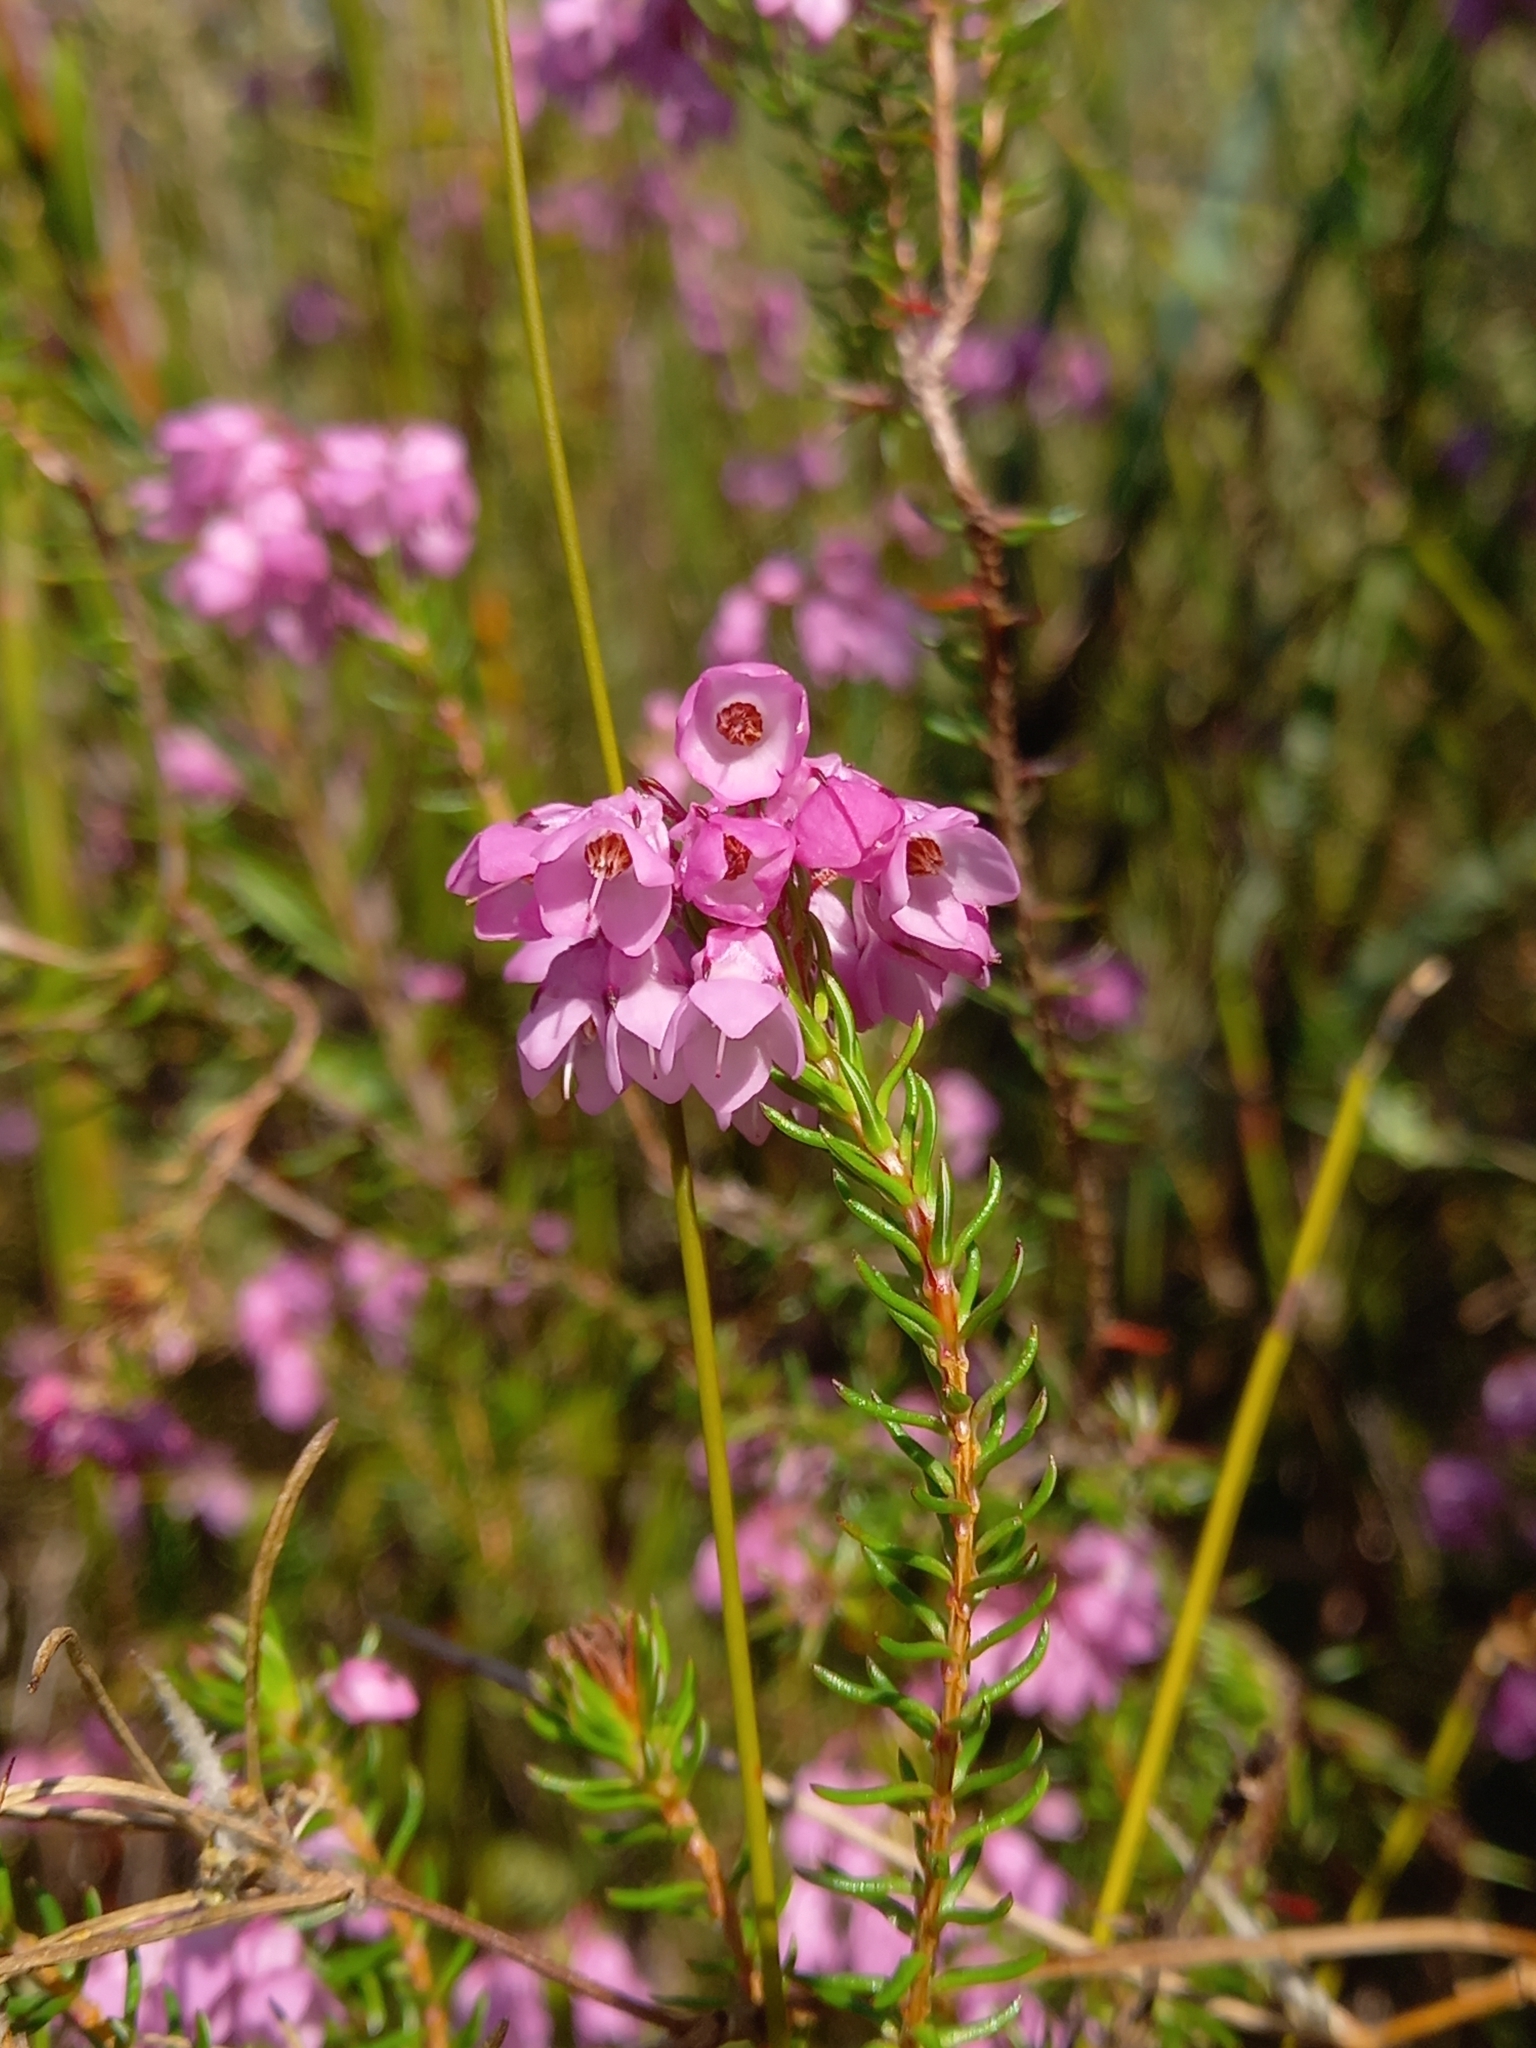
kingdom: Plantae
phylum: Tracheophyta
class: Magnoliopsida
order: Ericales
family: Ericaceae
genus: Erica
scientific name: Erica cubica
